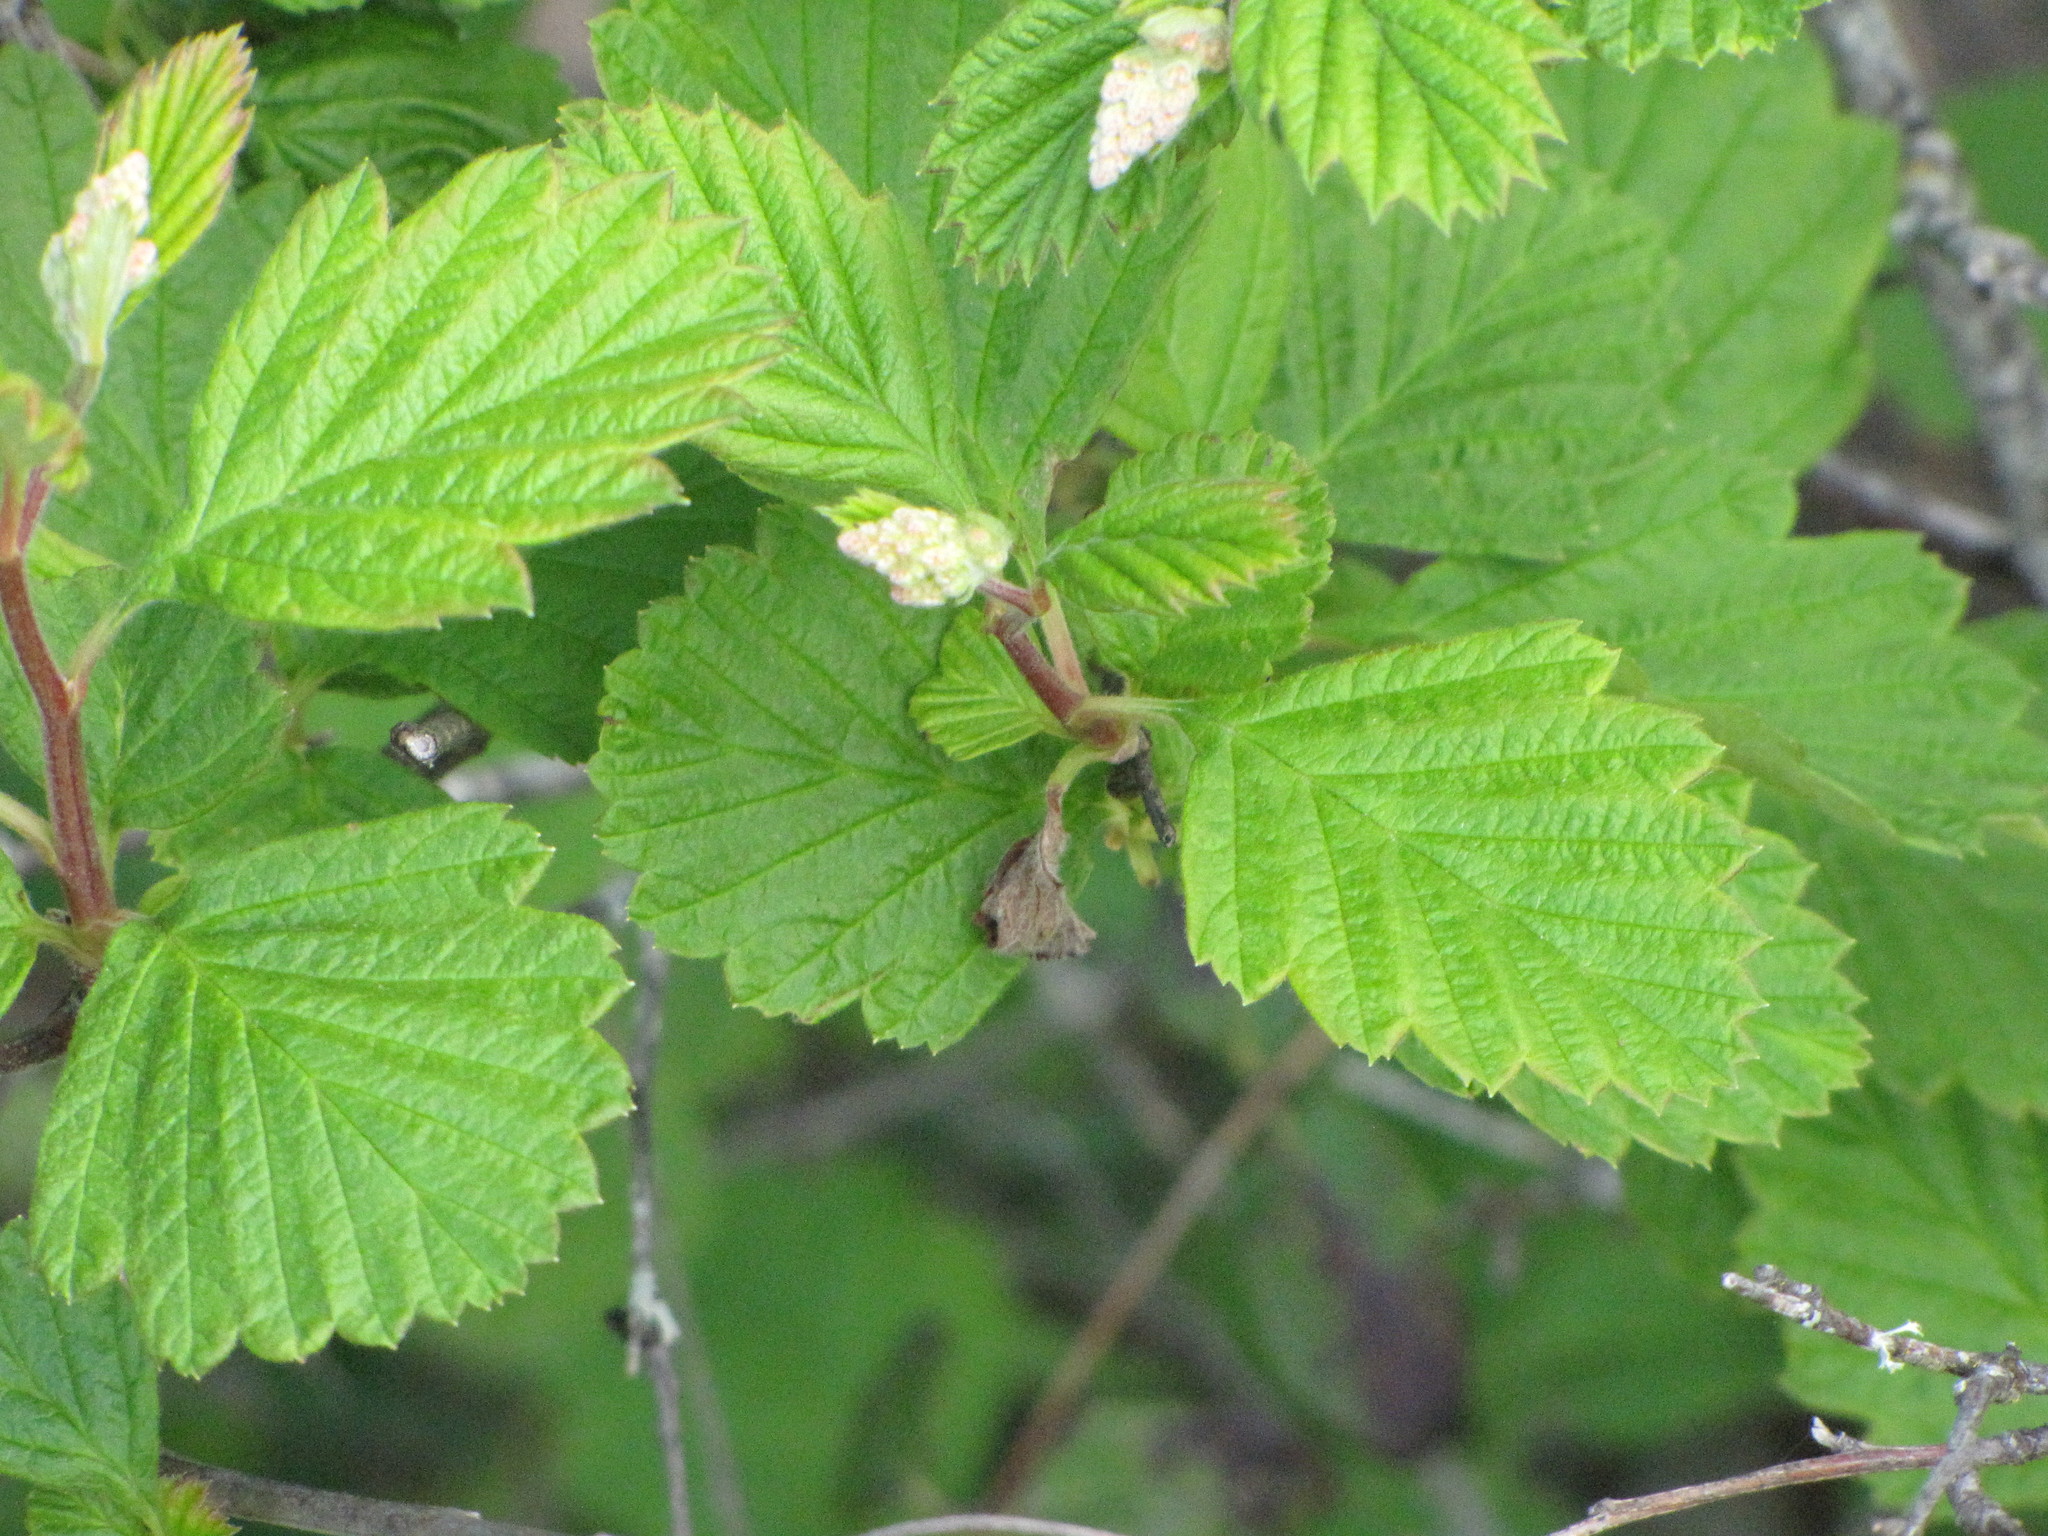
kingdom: Plantae
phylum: Tracheophyta
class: Magnoliopsida
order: Rosales
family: Rosaceae
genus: Holodiscus
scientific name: Holodiscus discolor
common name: Oceanspray
